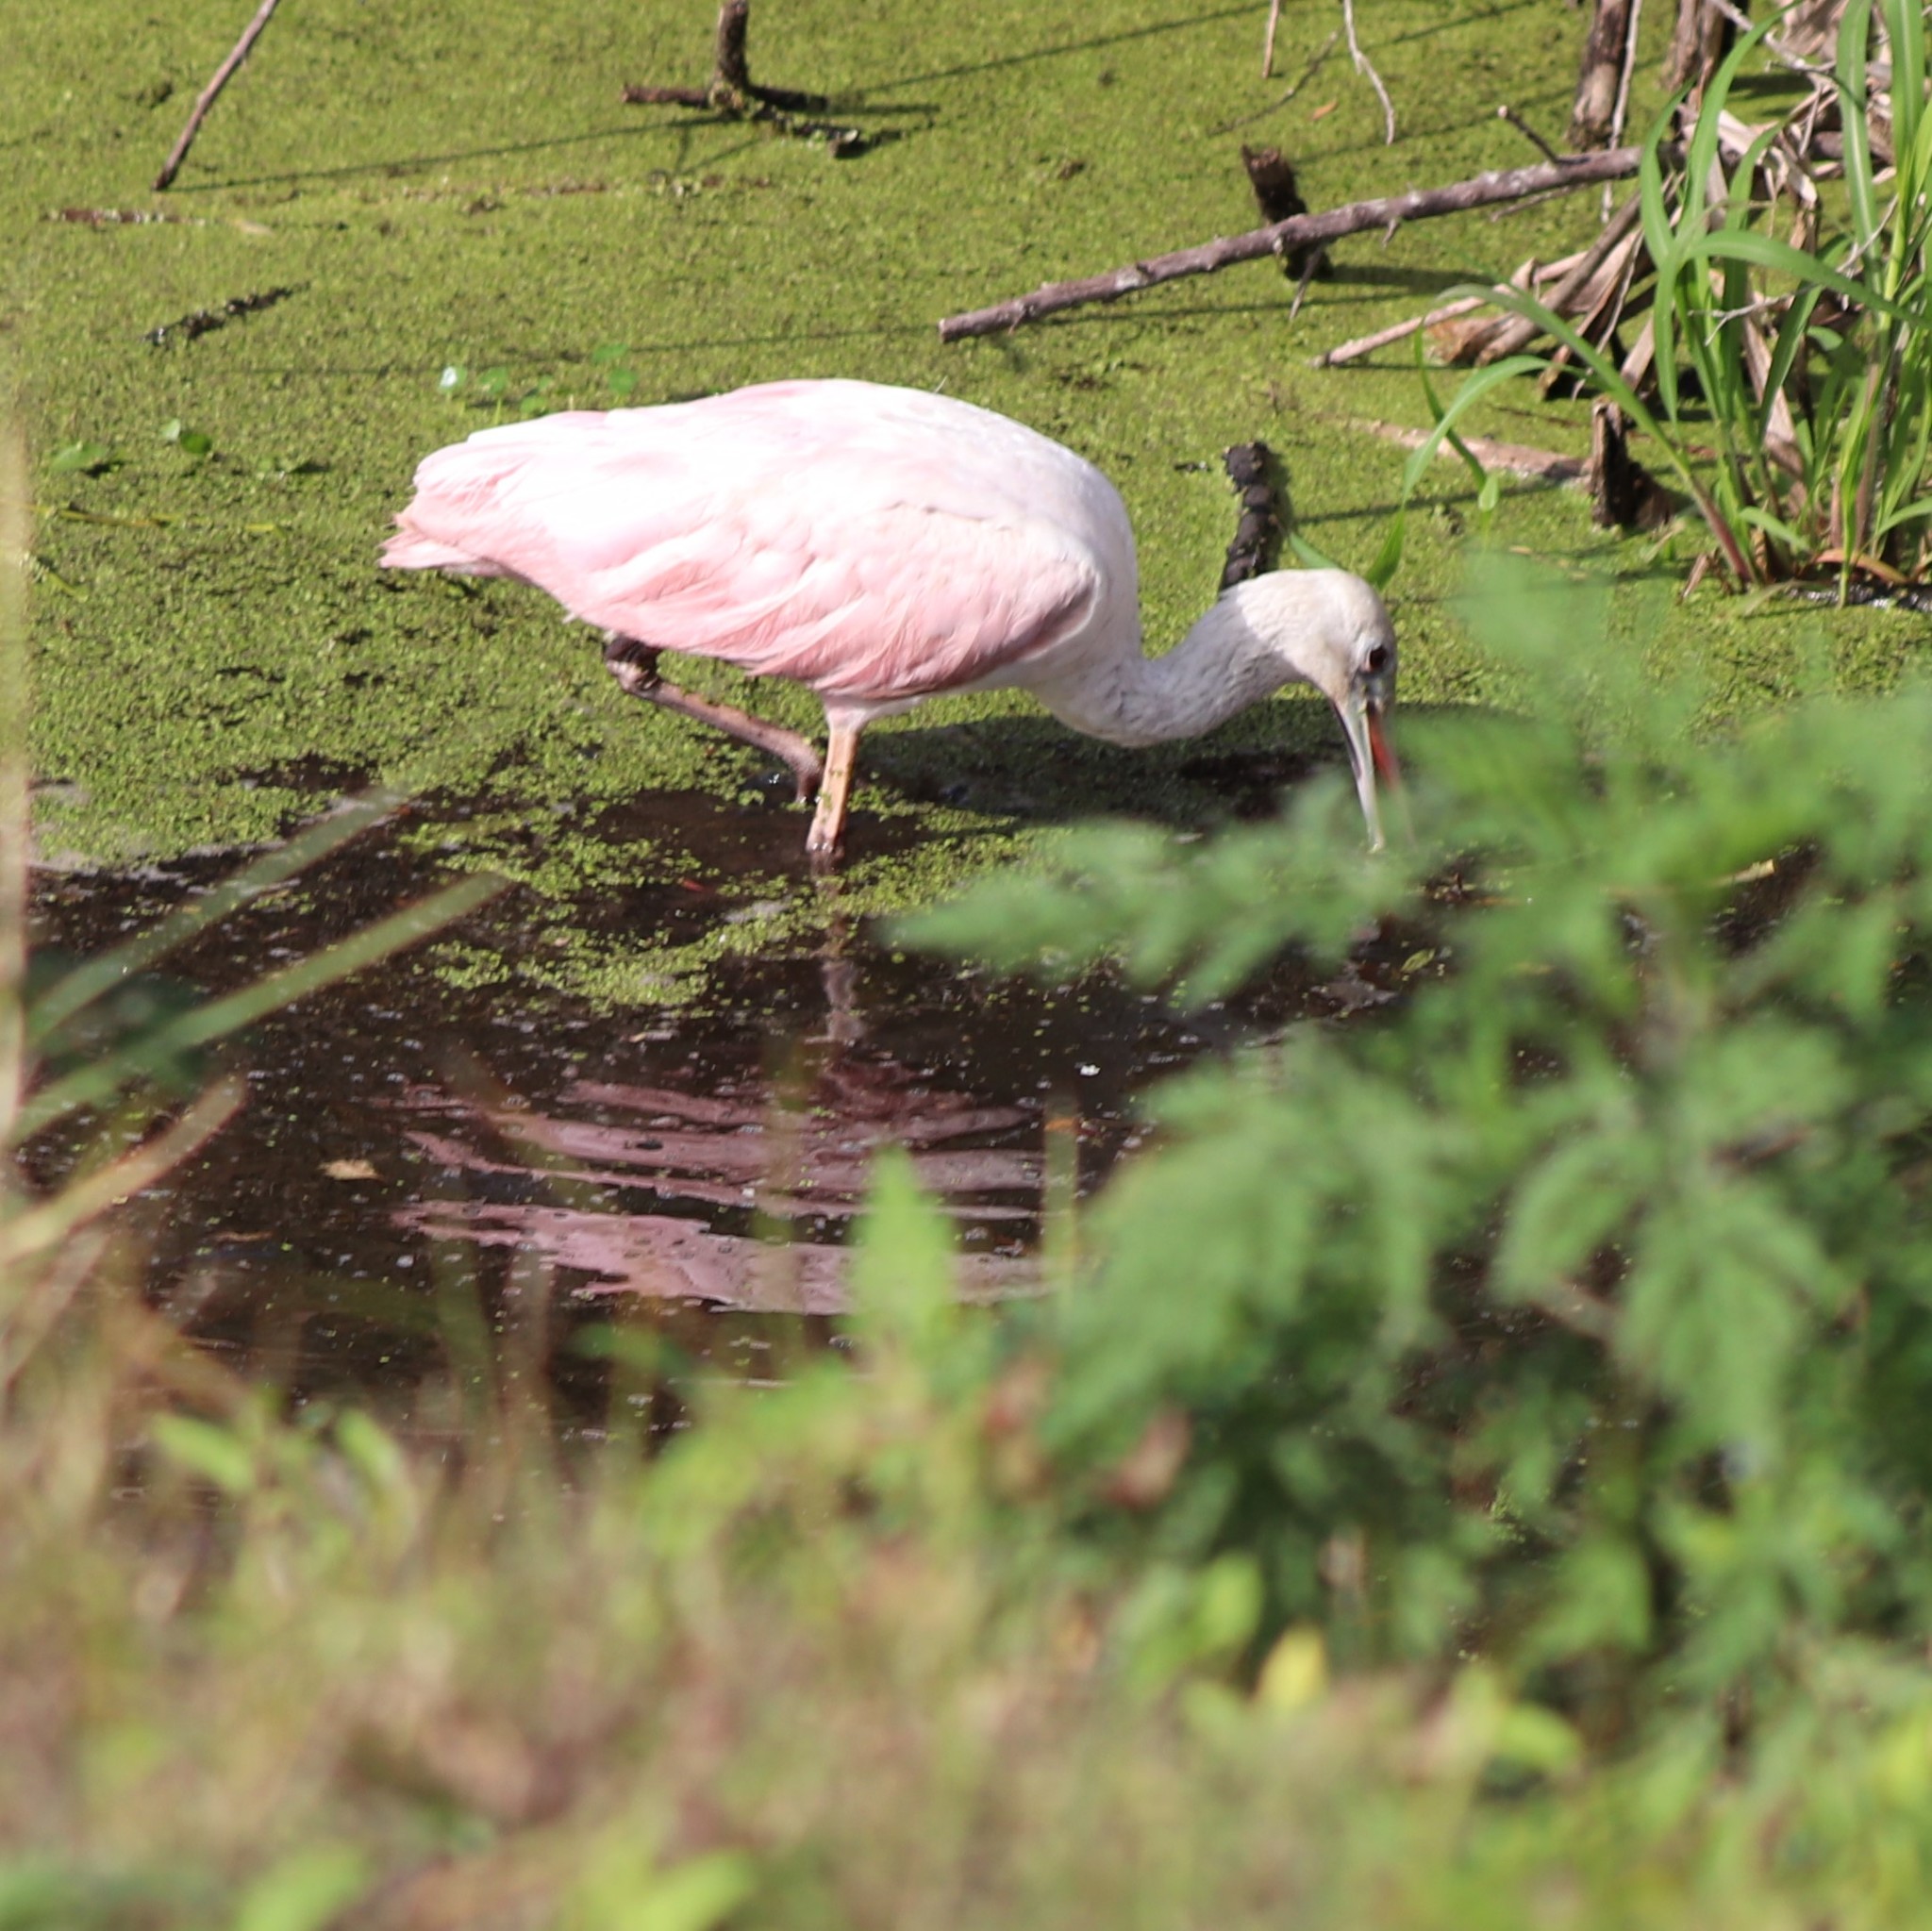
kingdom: Animalia
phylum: Chordata
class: Aves
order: Pelecaniformes
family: Threskiornithidae
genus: Platalea
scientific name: Platalea ajaja
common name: Roseate spoonbill
